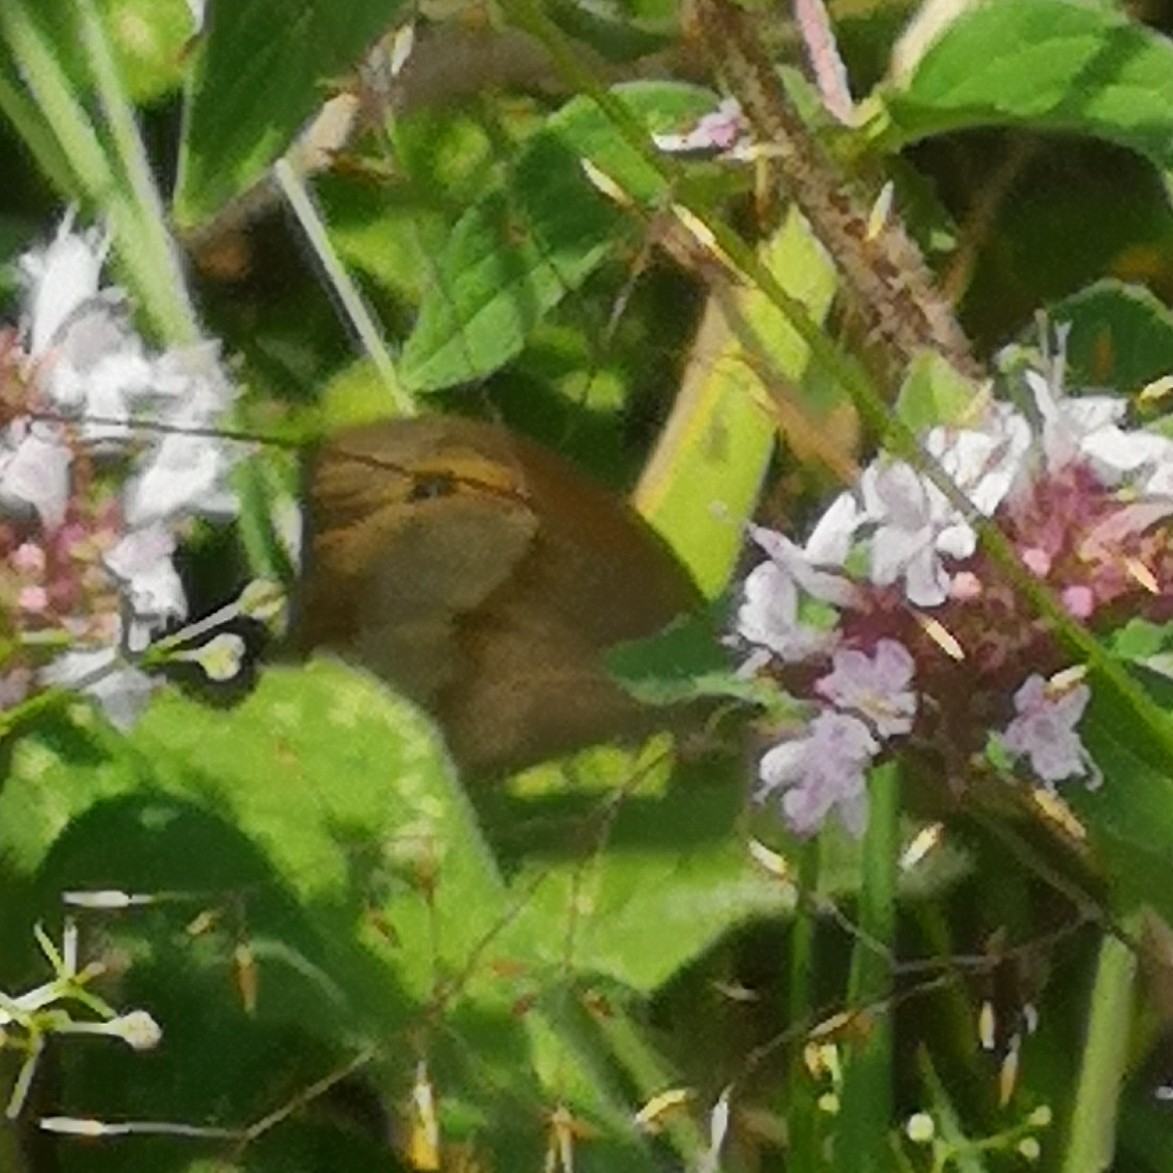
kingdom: Animalia
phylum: Arthropoda
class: Insecta
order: Lepidoptera
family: Nymphalidae
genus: Maniola
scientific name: Maniola jurtina
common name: Meadow brown
